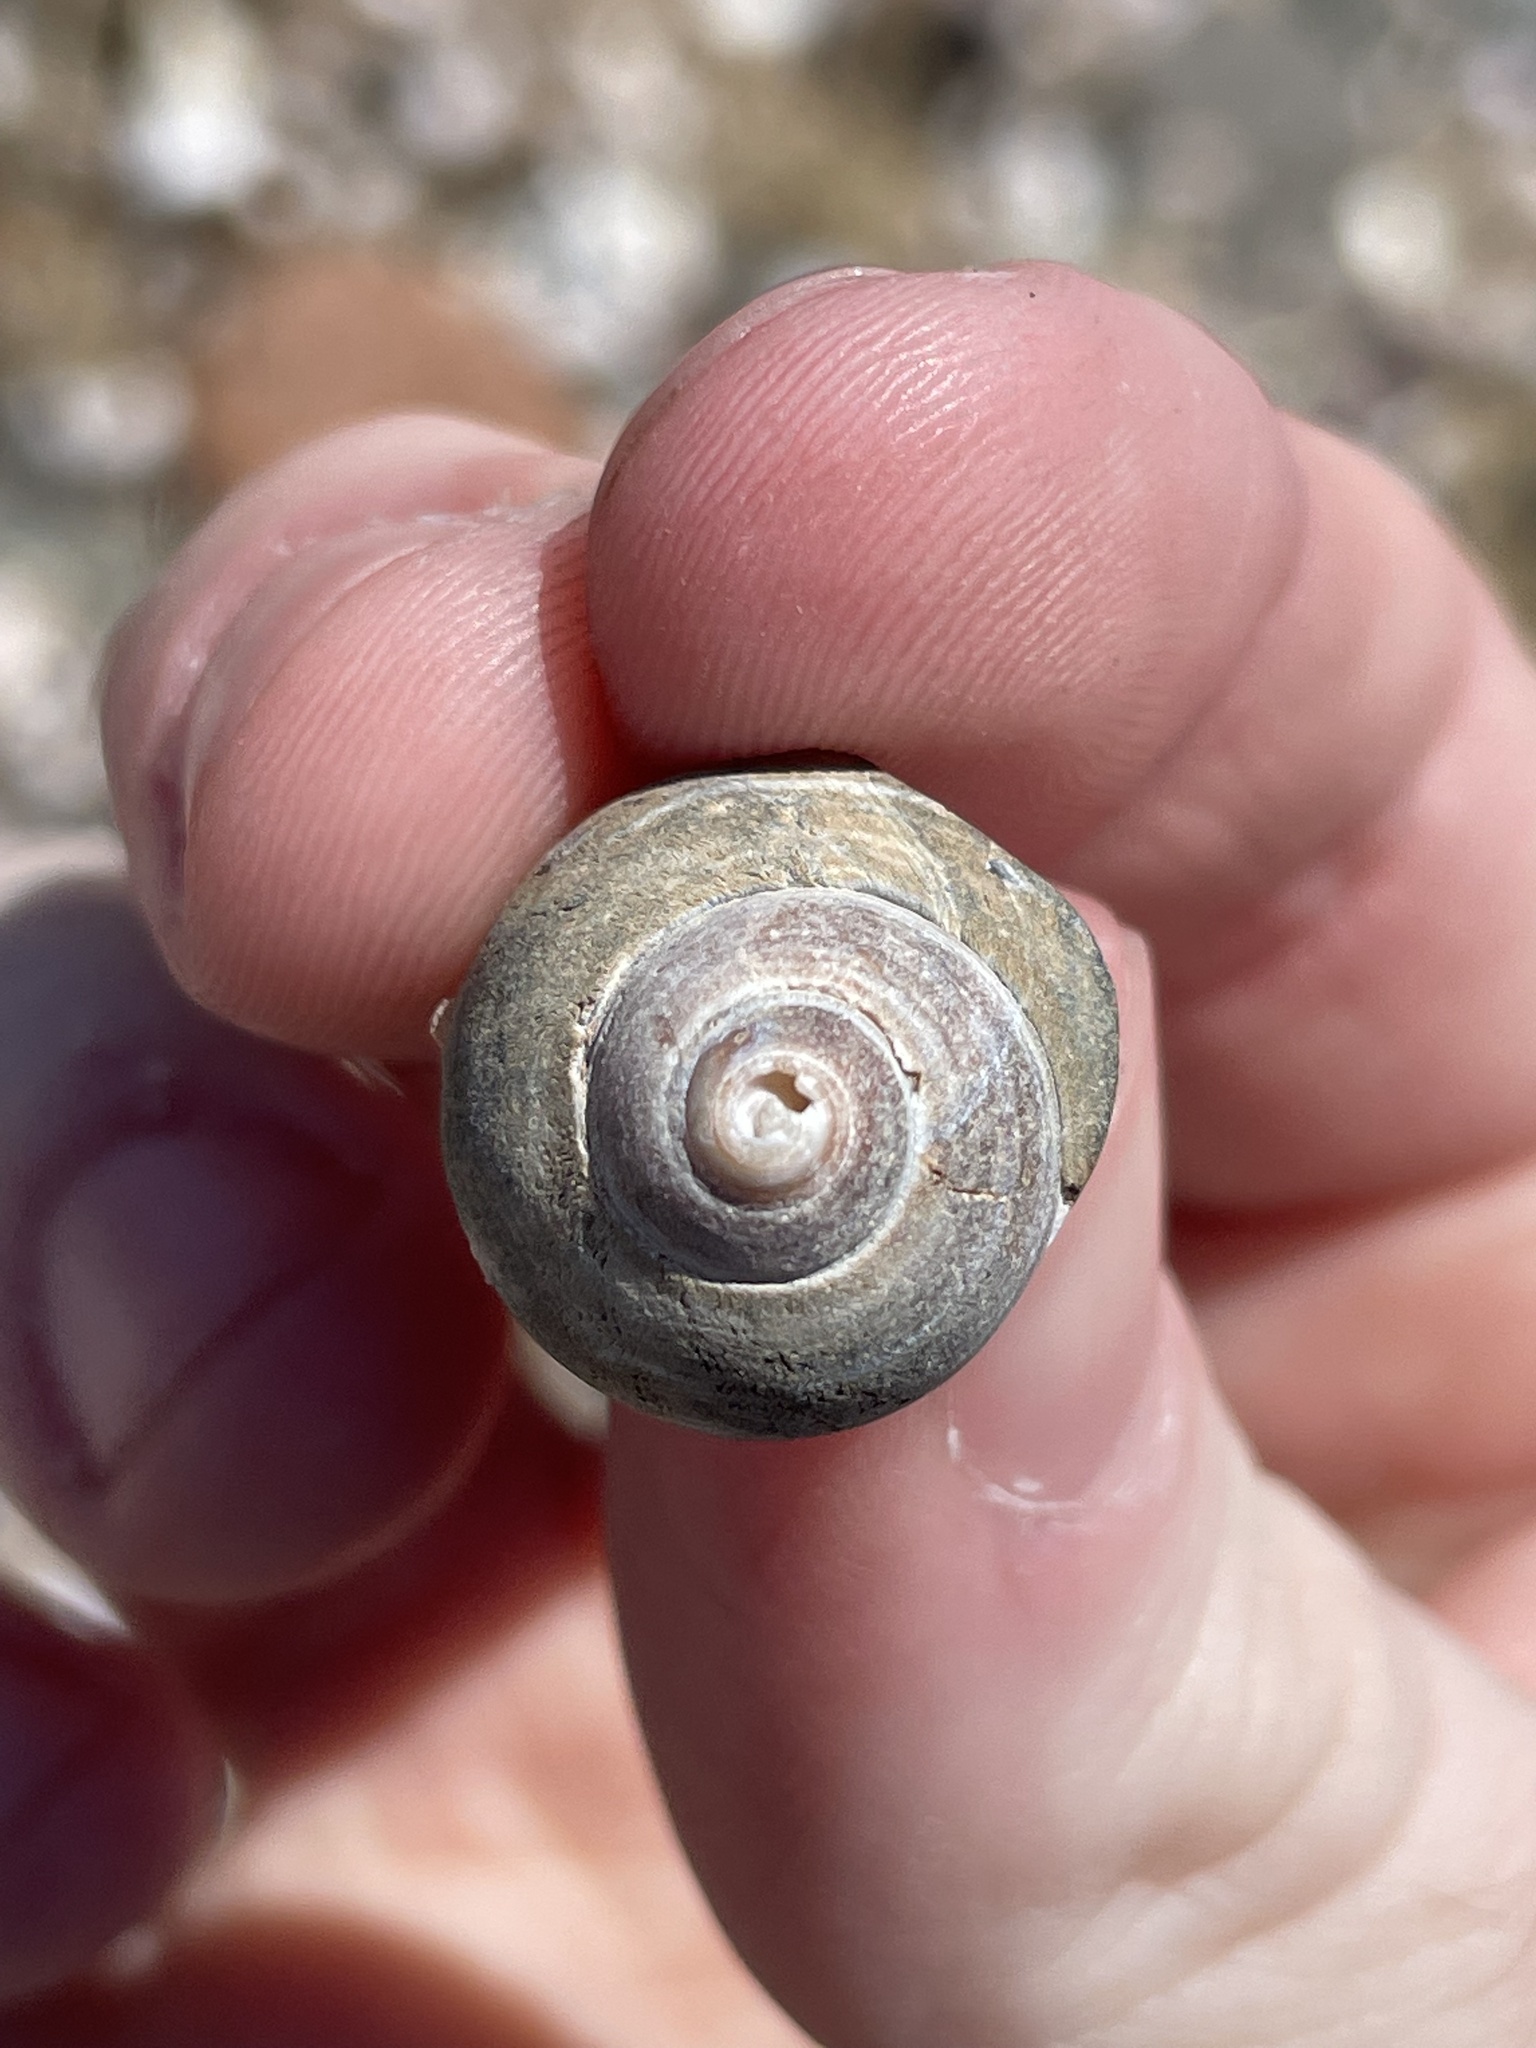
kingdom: Animalia
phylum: Mollusca
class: Gastropoda
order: Littorinimorpha
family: Littorinidae
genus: Littorina
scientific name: Littorina littorea
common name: Common periwinkle
